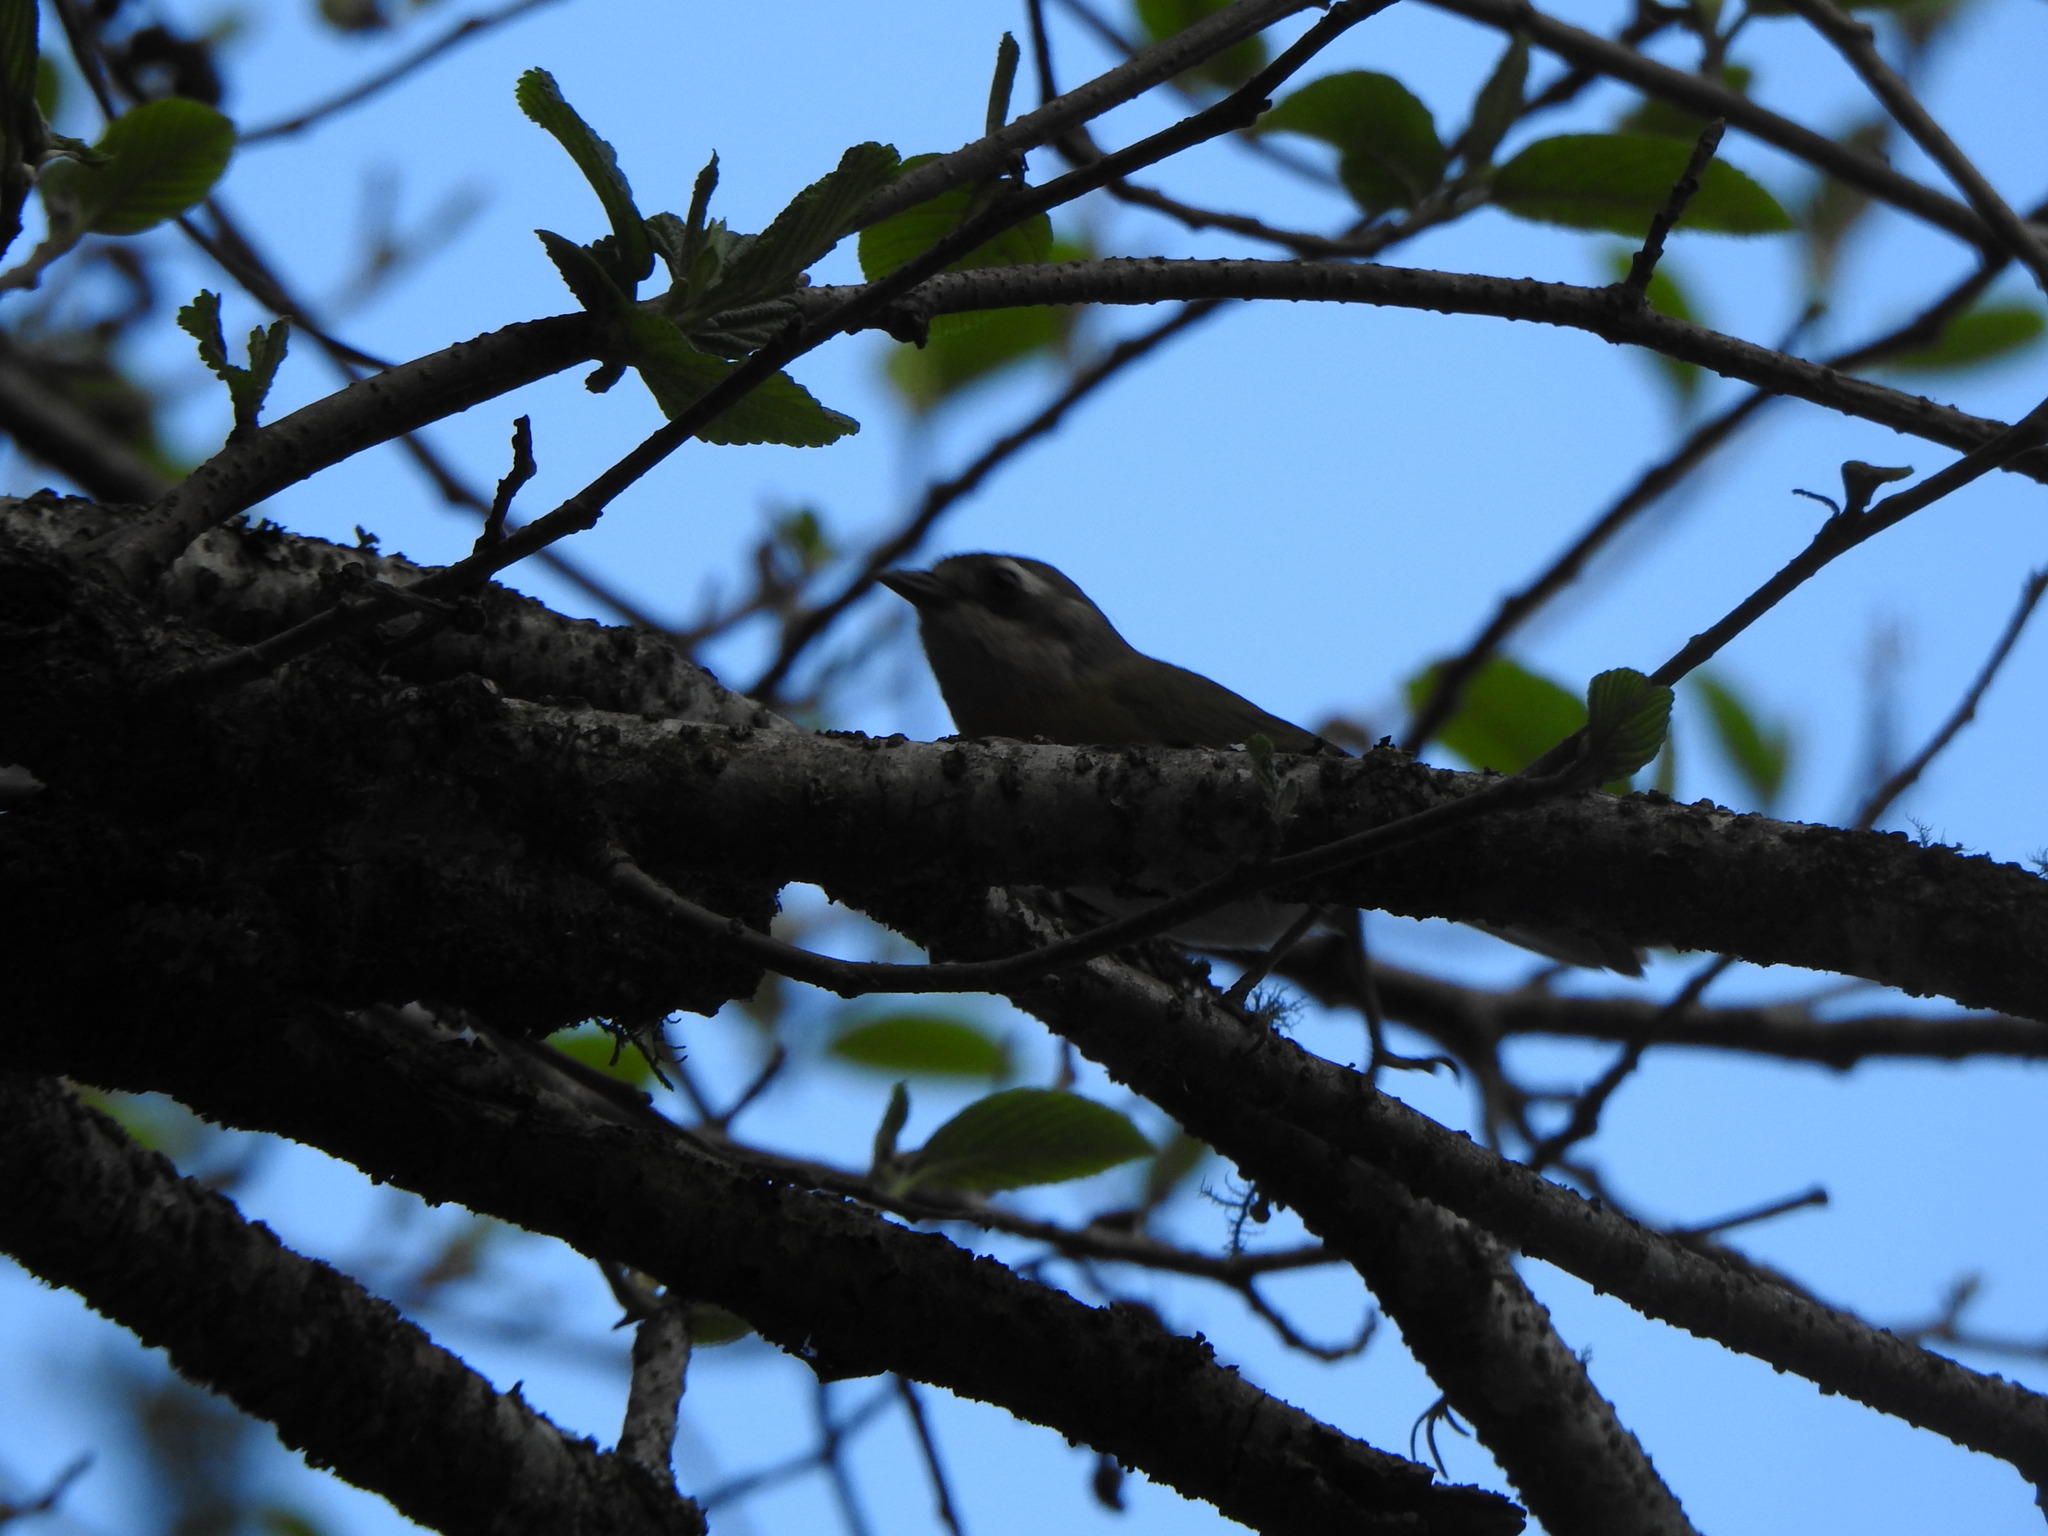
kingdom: Animalia
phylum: Chordata
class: Aves
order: Passeriformes
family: Passerellidae
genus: Chlorospingus
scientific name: Chlorospingus flavopectus
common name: Common chlorospingus
